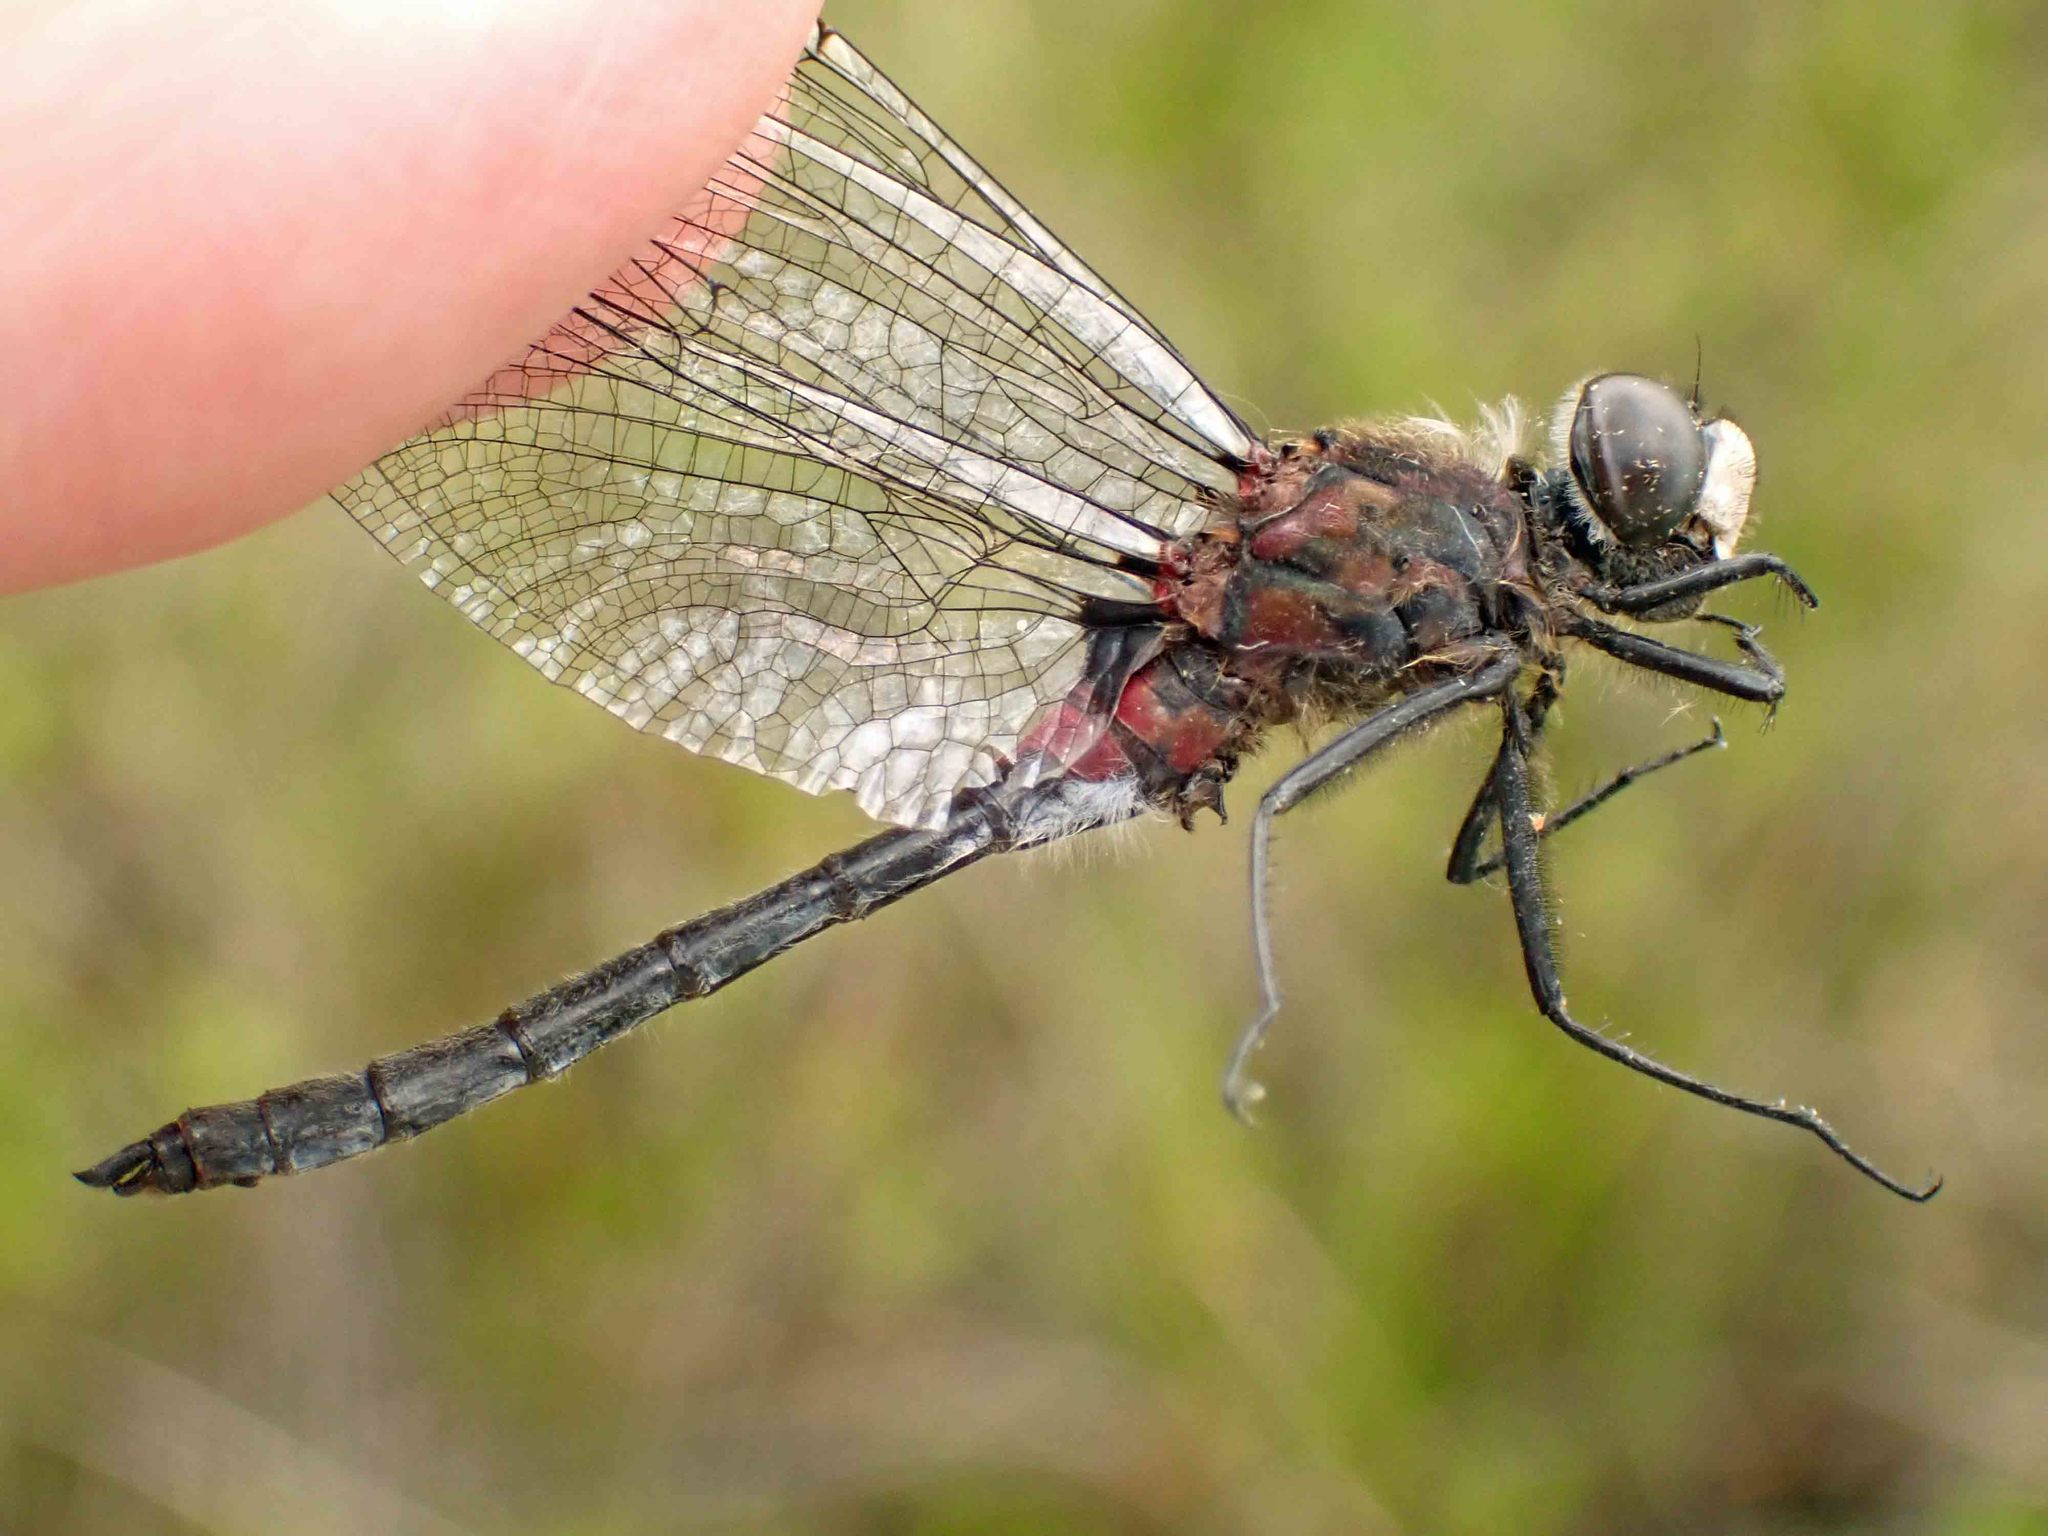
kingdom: Animalia
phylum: Arthropoda
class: Insecta
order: Odonata
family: Libellulidae
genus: Leucorrhinia
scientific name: Leucorrhinia glacialis
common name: Crimson-ringed whiteface
